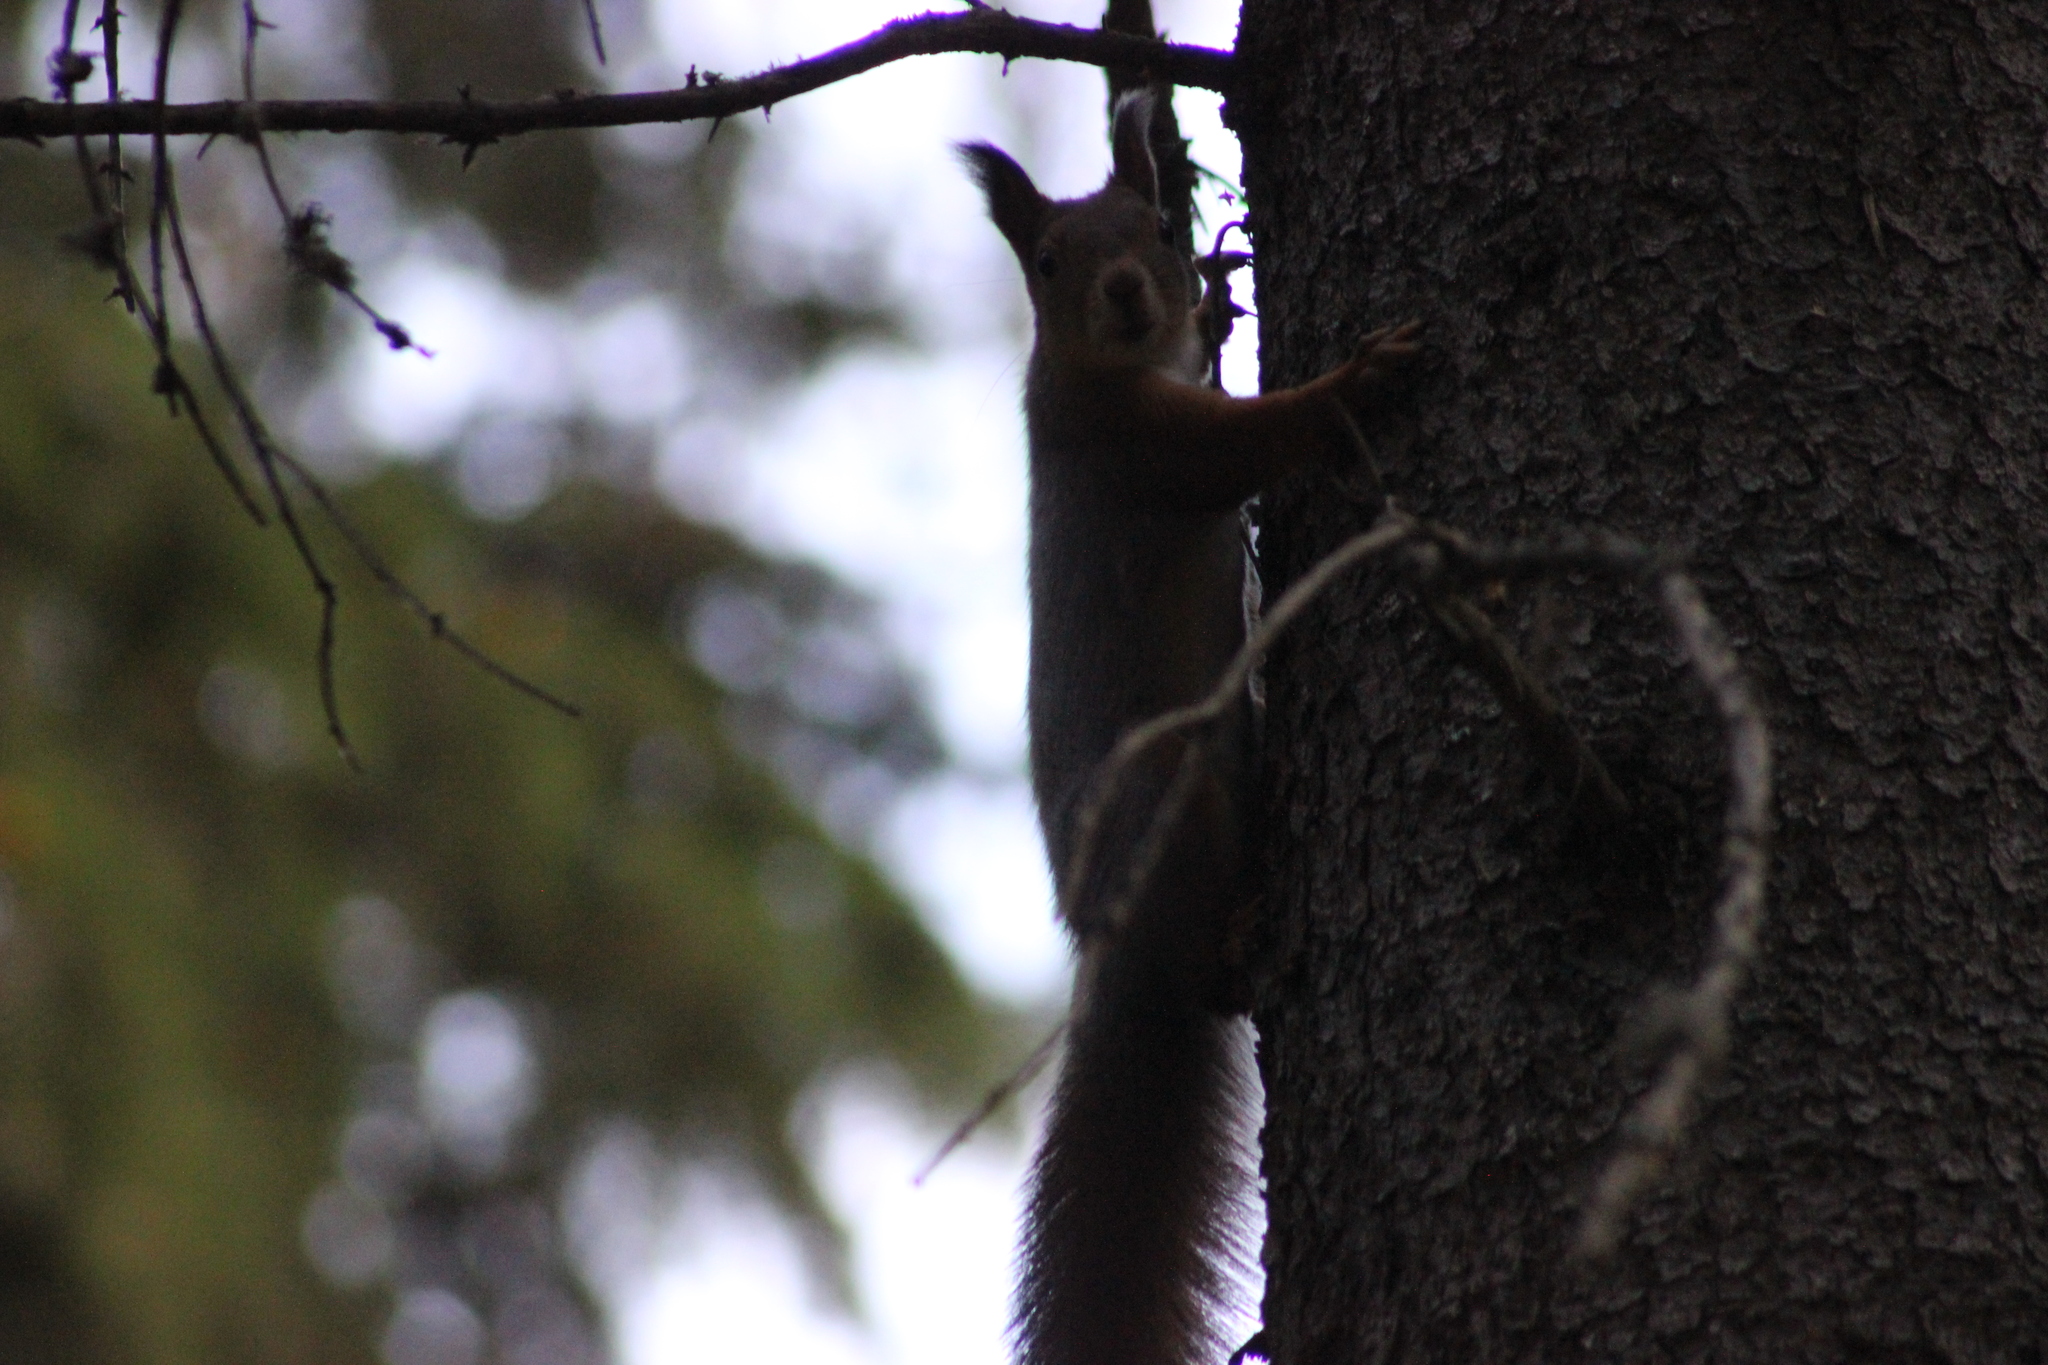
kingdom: Animalia
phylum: Chordata
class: Mammalia
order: Rodentia
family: Sciuridae
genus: Sciurus
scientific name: Sciurus vulgaris
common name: Eurasian red squirrel
